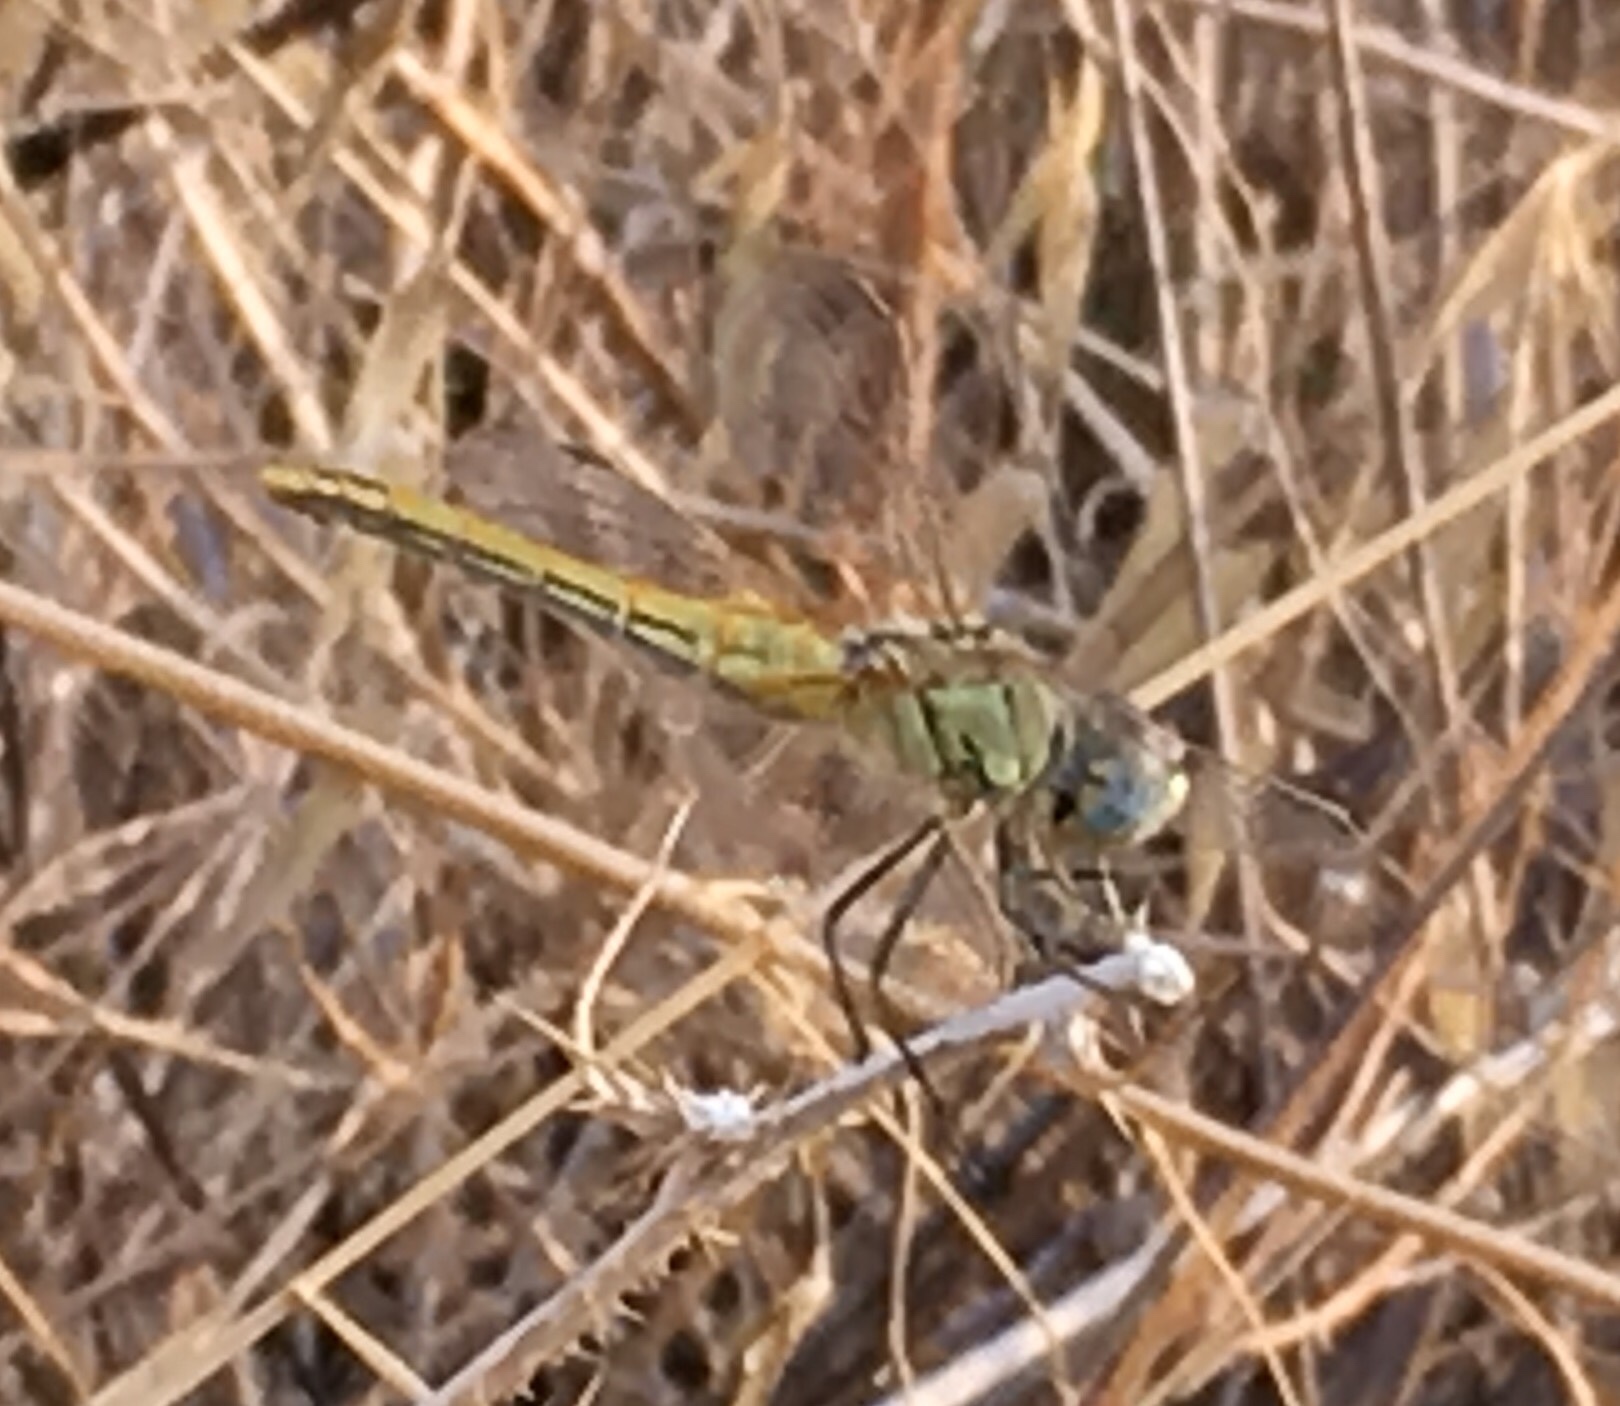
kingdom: Animalia
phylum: Arthropoda
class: Insecta
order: Odonata
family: Libellulidae
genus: Sympetrum
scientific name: Sympetrum fonscolombii
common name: Red-veined darter
